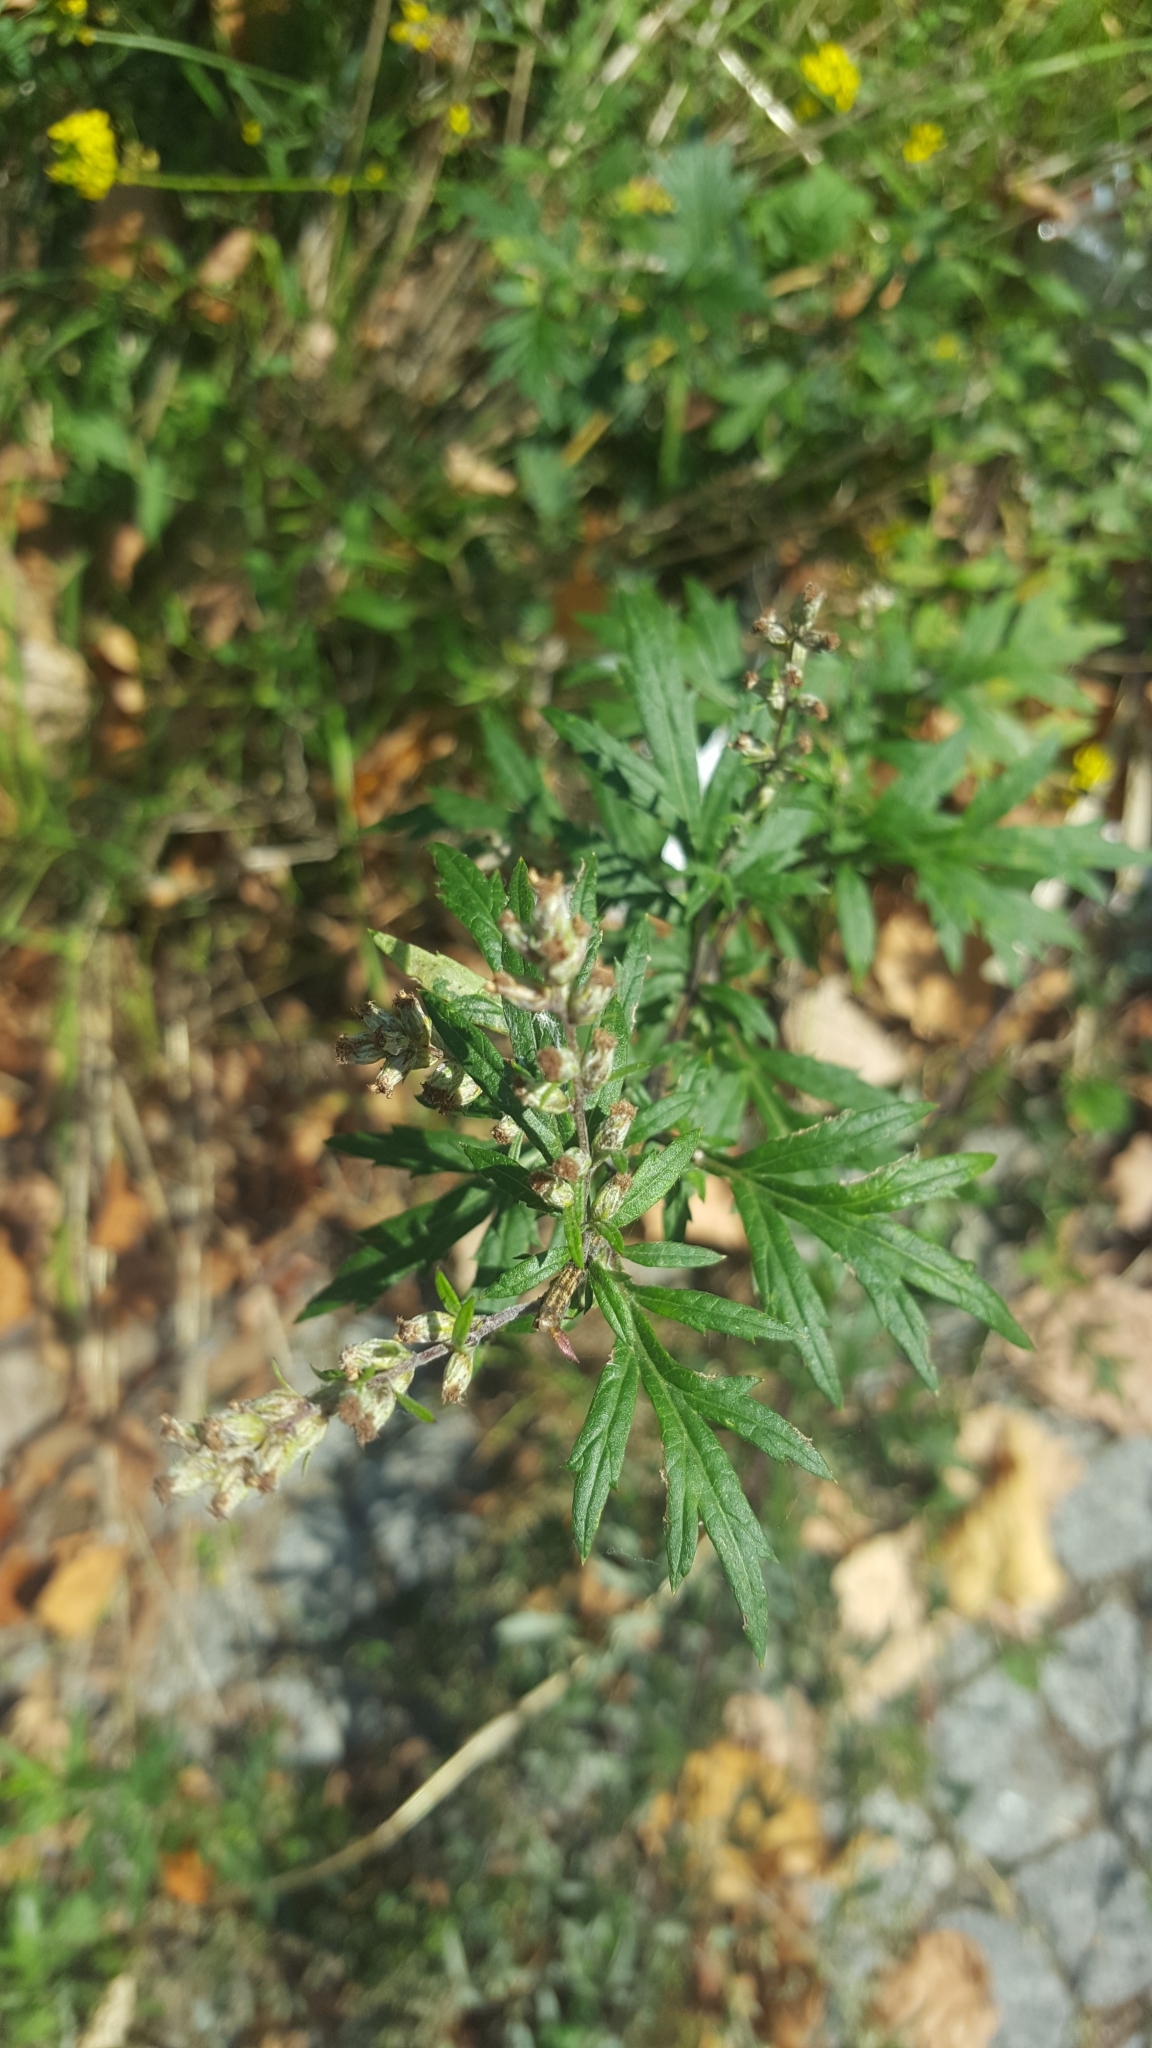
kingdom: Plantae
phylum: Tracheophyta
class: Magnoliopsida
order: Asterales
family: Asteraceae
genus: Artemisia
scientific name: Artemisia vulgaris
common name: Mugwort
